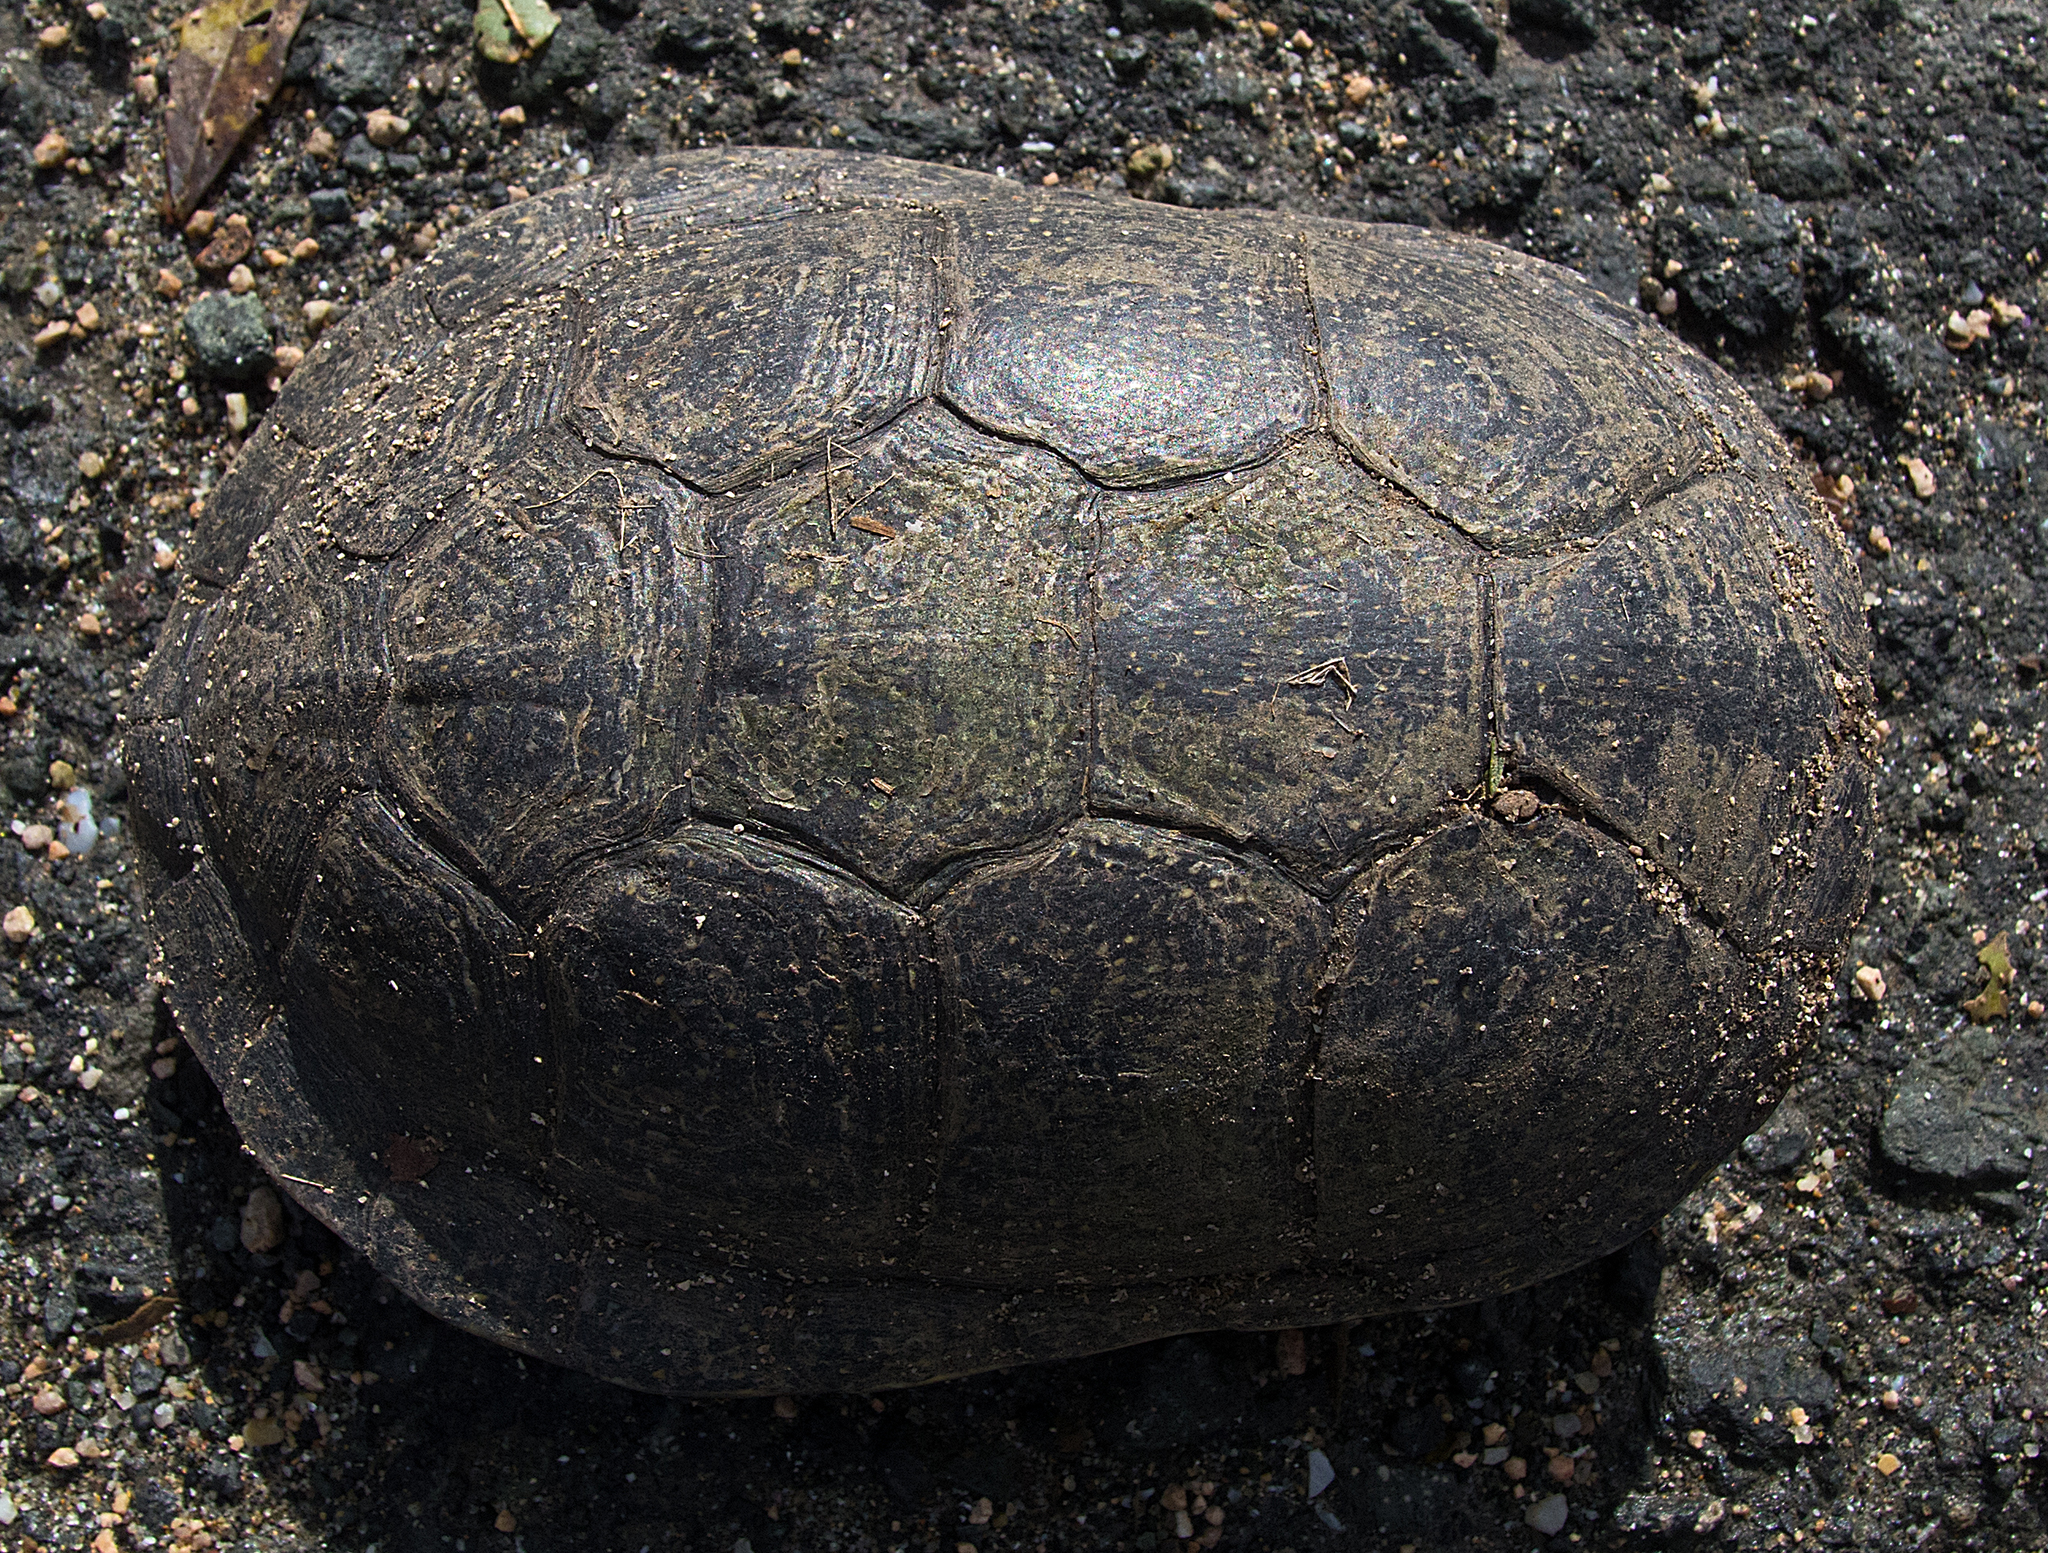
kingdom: Animalia
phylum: Chordata
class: Testudines
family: Emydidae
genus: Emys
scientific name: Emys orbicularis
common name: European pond turtle
